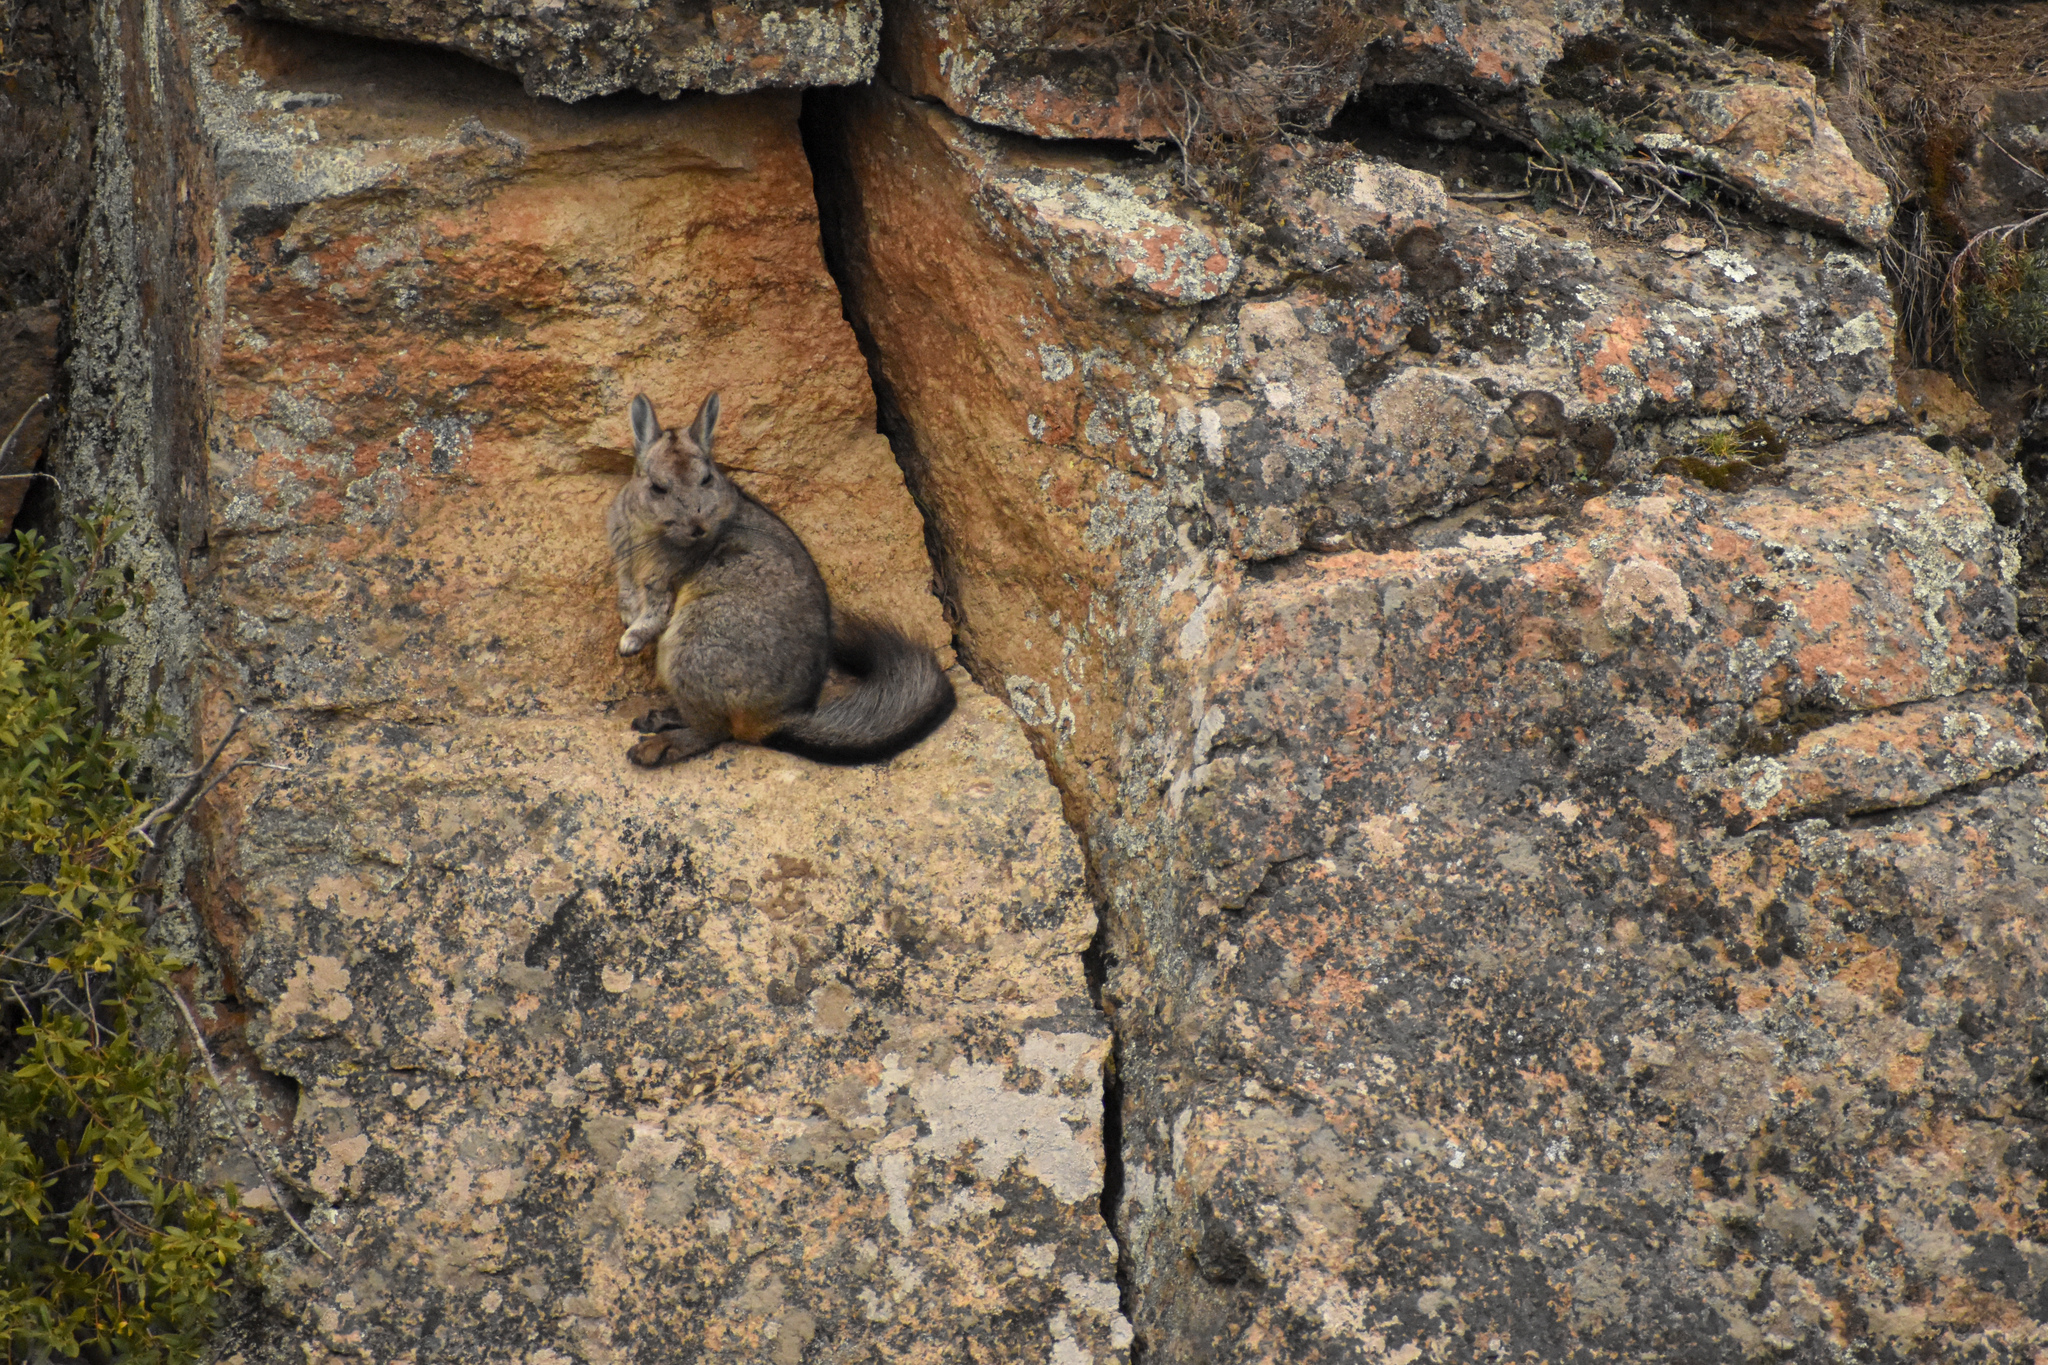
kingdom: Animalia
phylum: Chordata
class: Mammalia
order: Rodentia
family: Chinchillidae
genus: Lagidium
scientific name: Lagidium viscacia
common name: Southern viscacha
